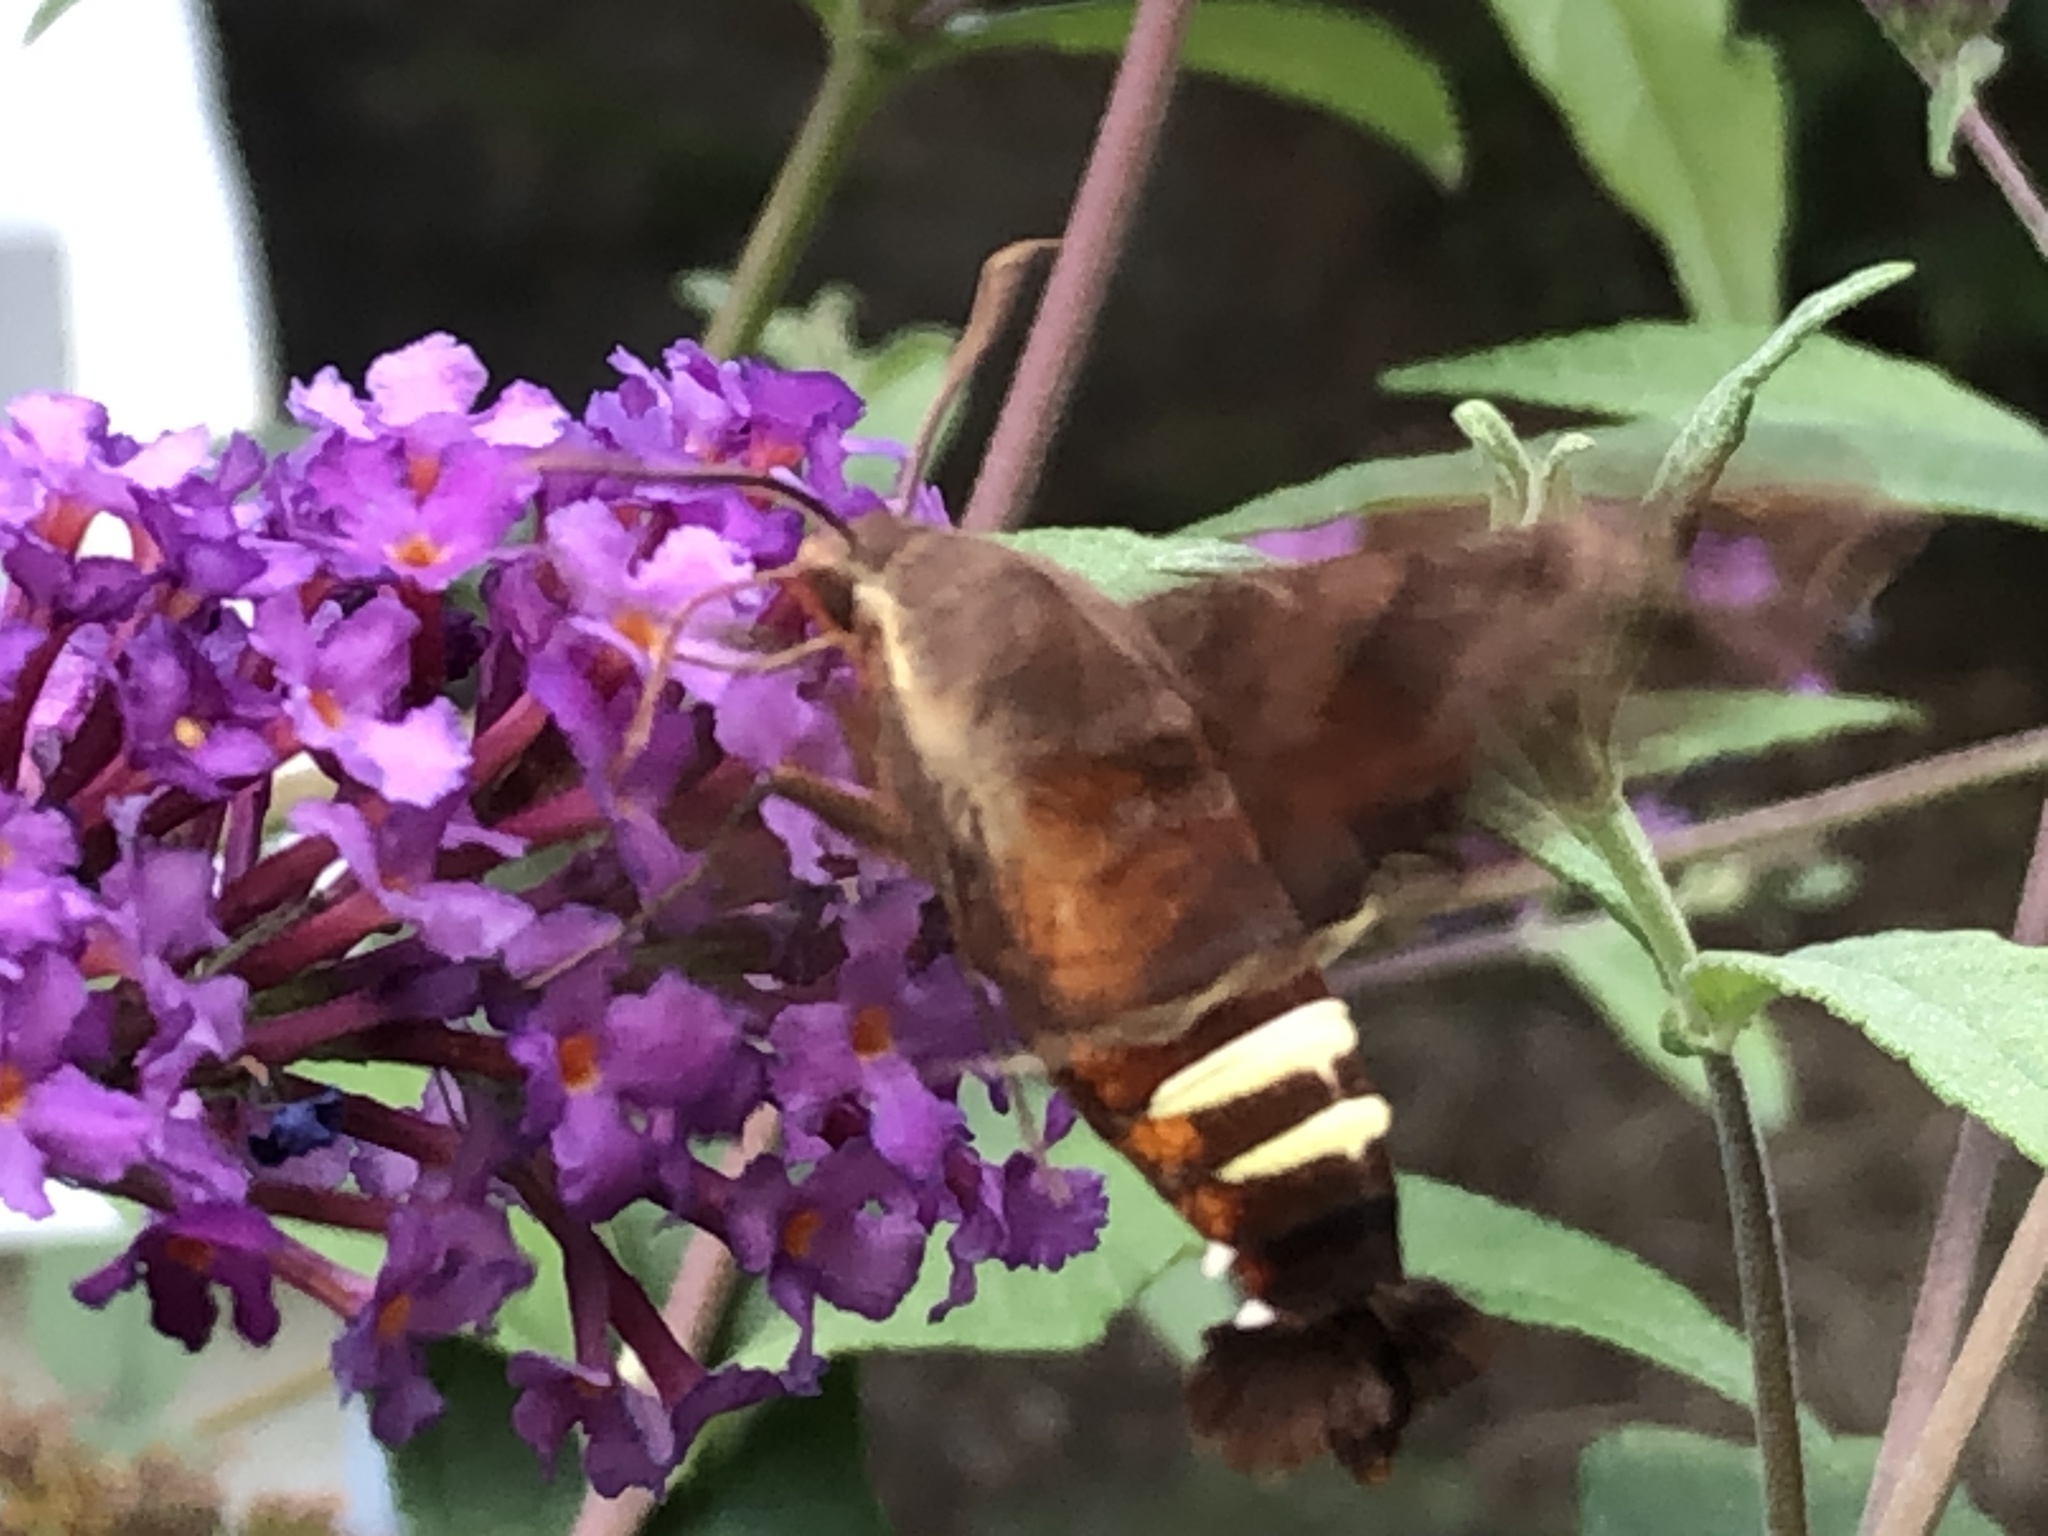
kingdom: Animalia
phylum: Arthropoda
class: Insecta
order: Lepidoptera
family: Sphingidae
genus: Amphion
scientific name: Amphion floridensis
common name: Nessus sphinx
